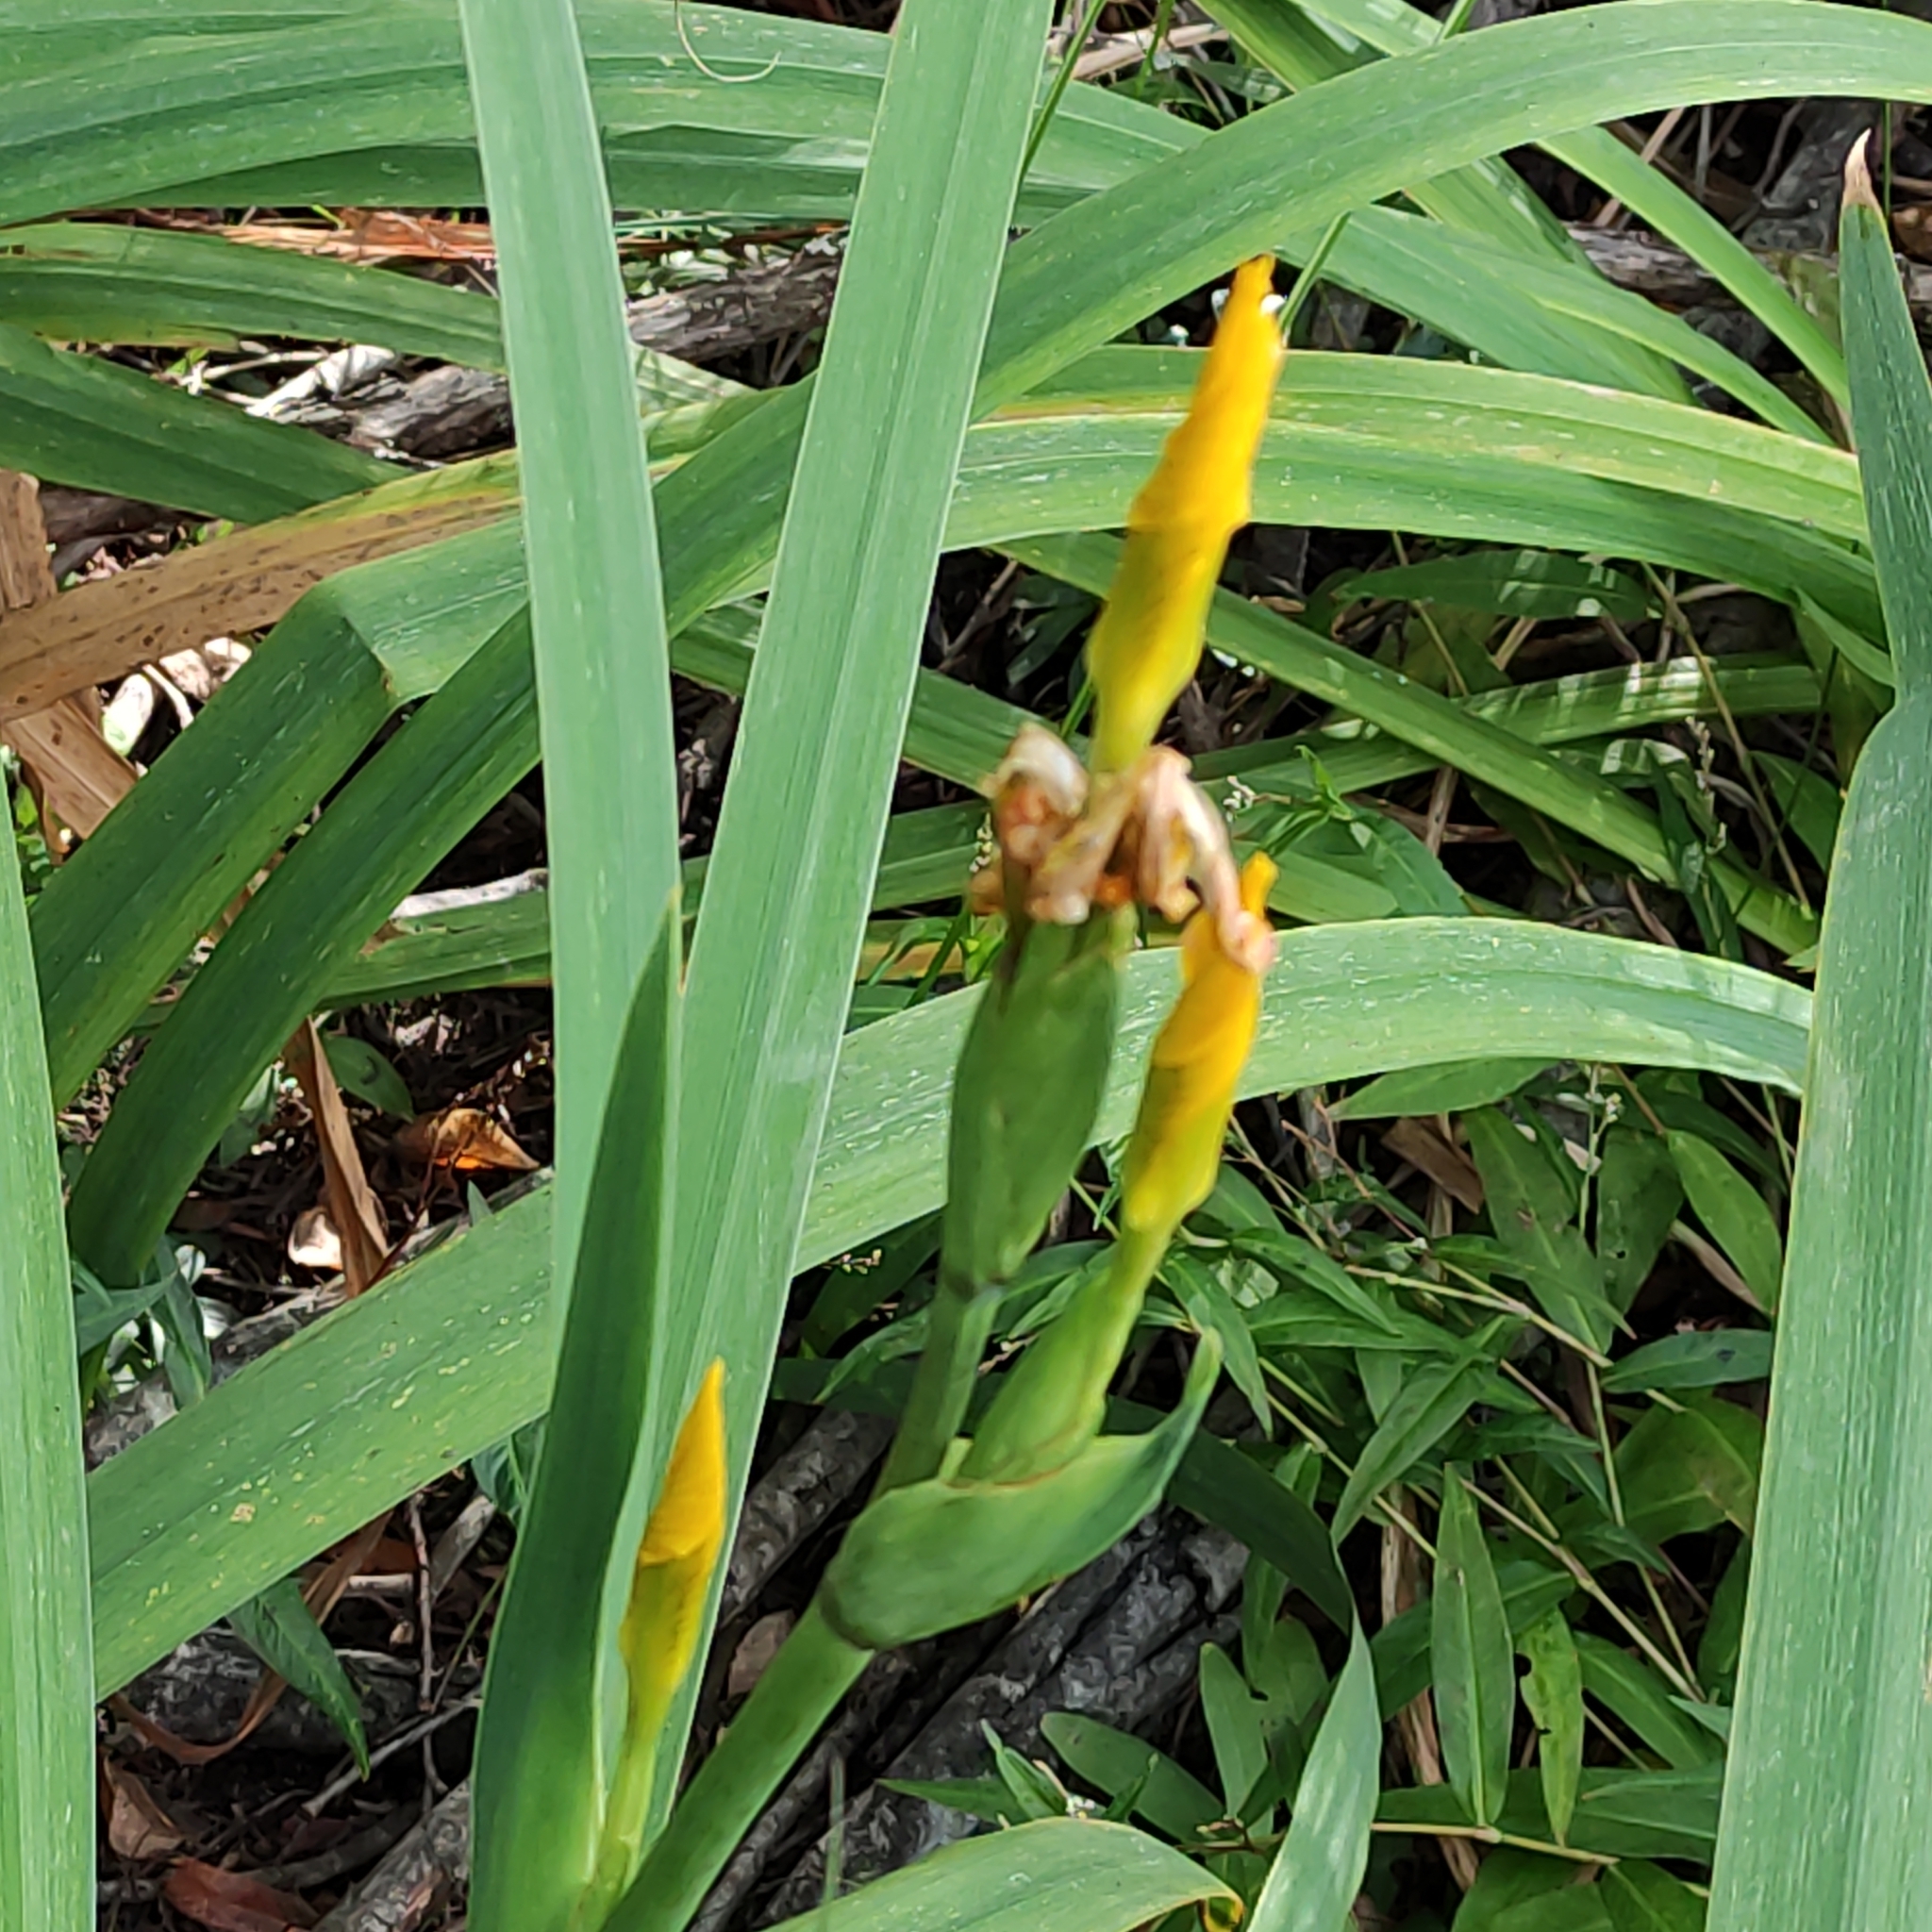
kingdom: Plantae
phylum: Tracheophyta
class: Liliopsida
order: Asparagales
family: Iridaceae
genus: Iris
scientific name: Iris pseudacorus
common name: Yellow flag
